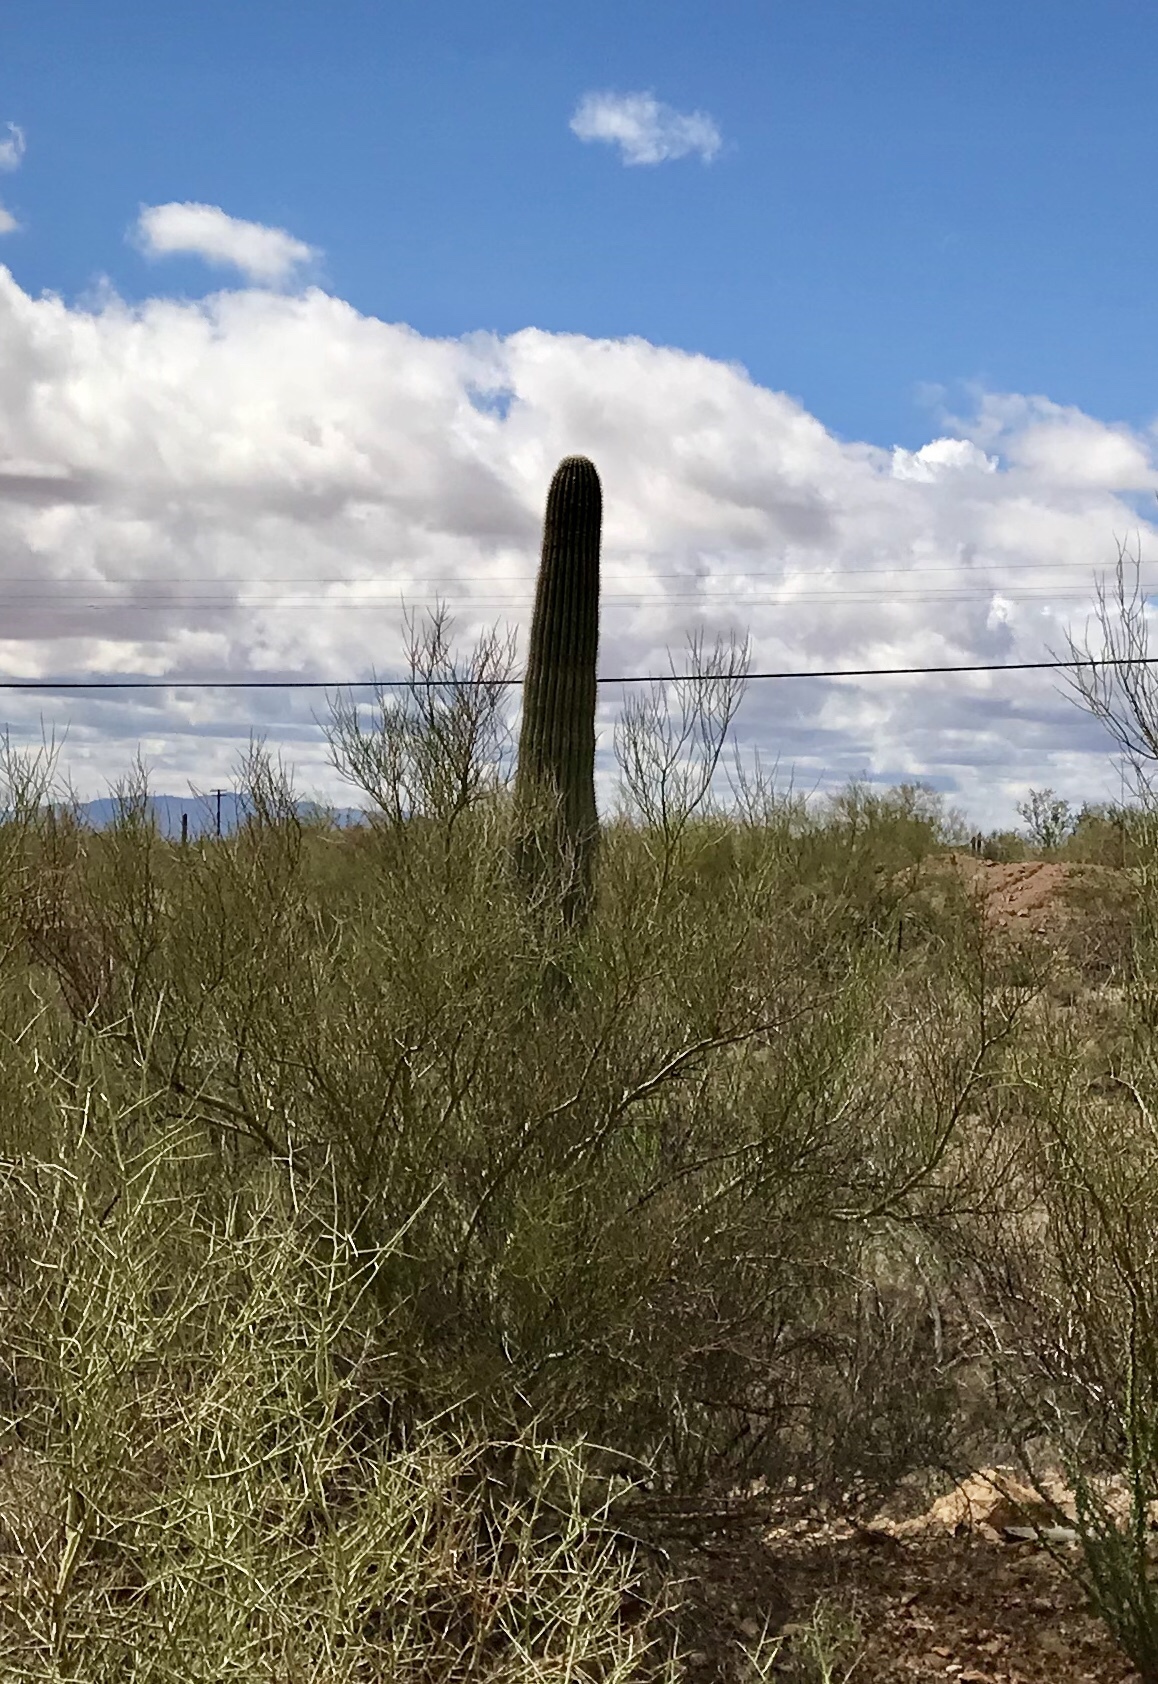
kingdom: Plantae
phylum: Tracheophyta
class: Magnoliopsida
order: Caryophyllales
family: Cactaceae
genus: Carnegiea
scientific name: Carnegiea gigantea
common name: Saguaro
